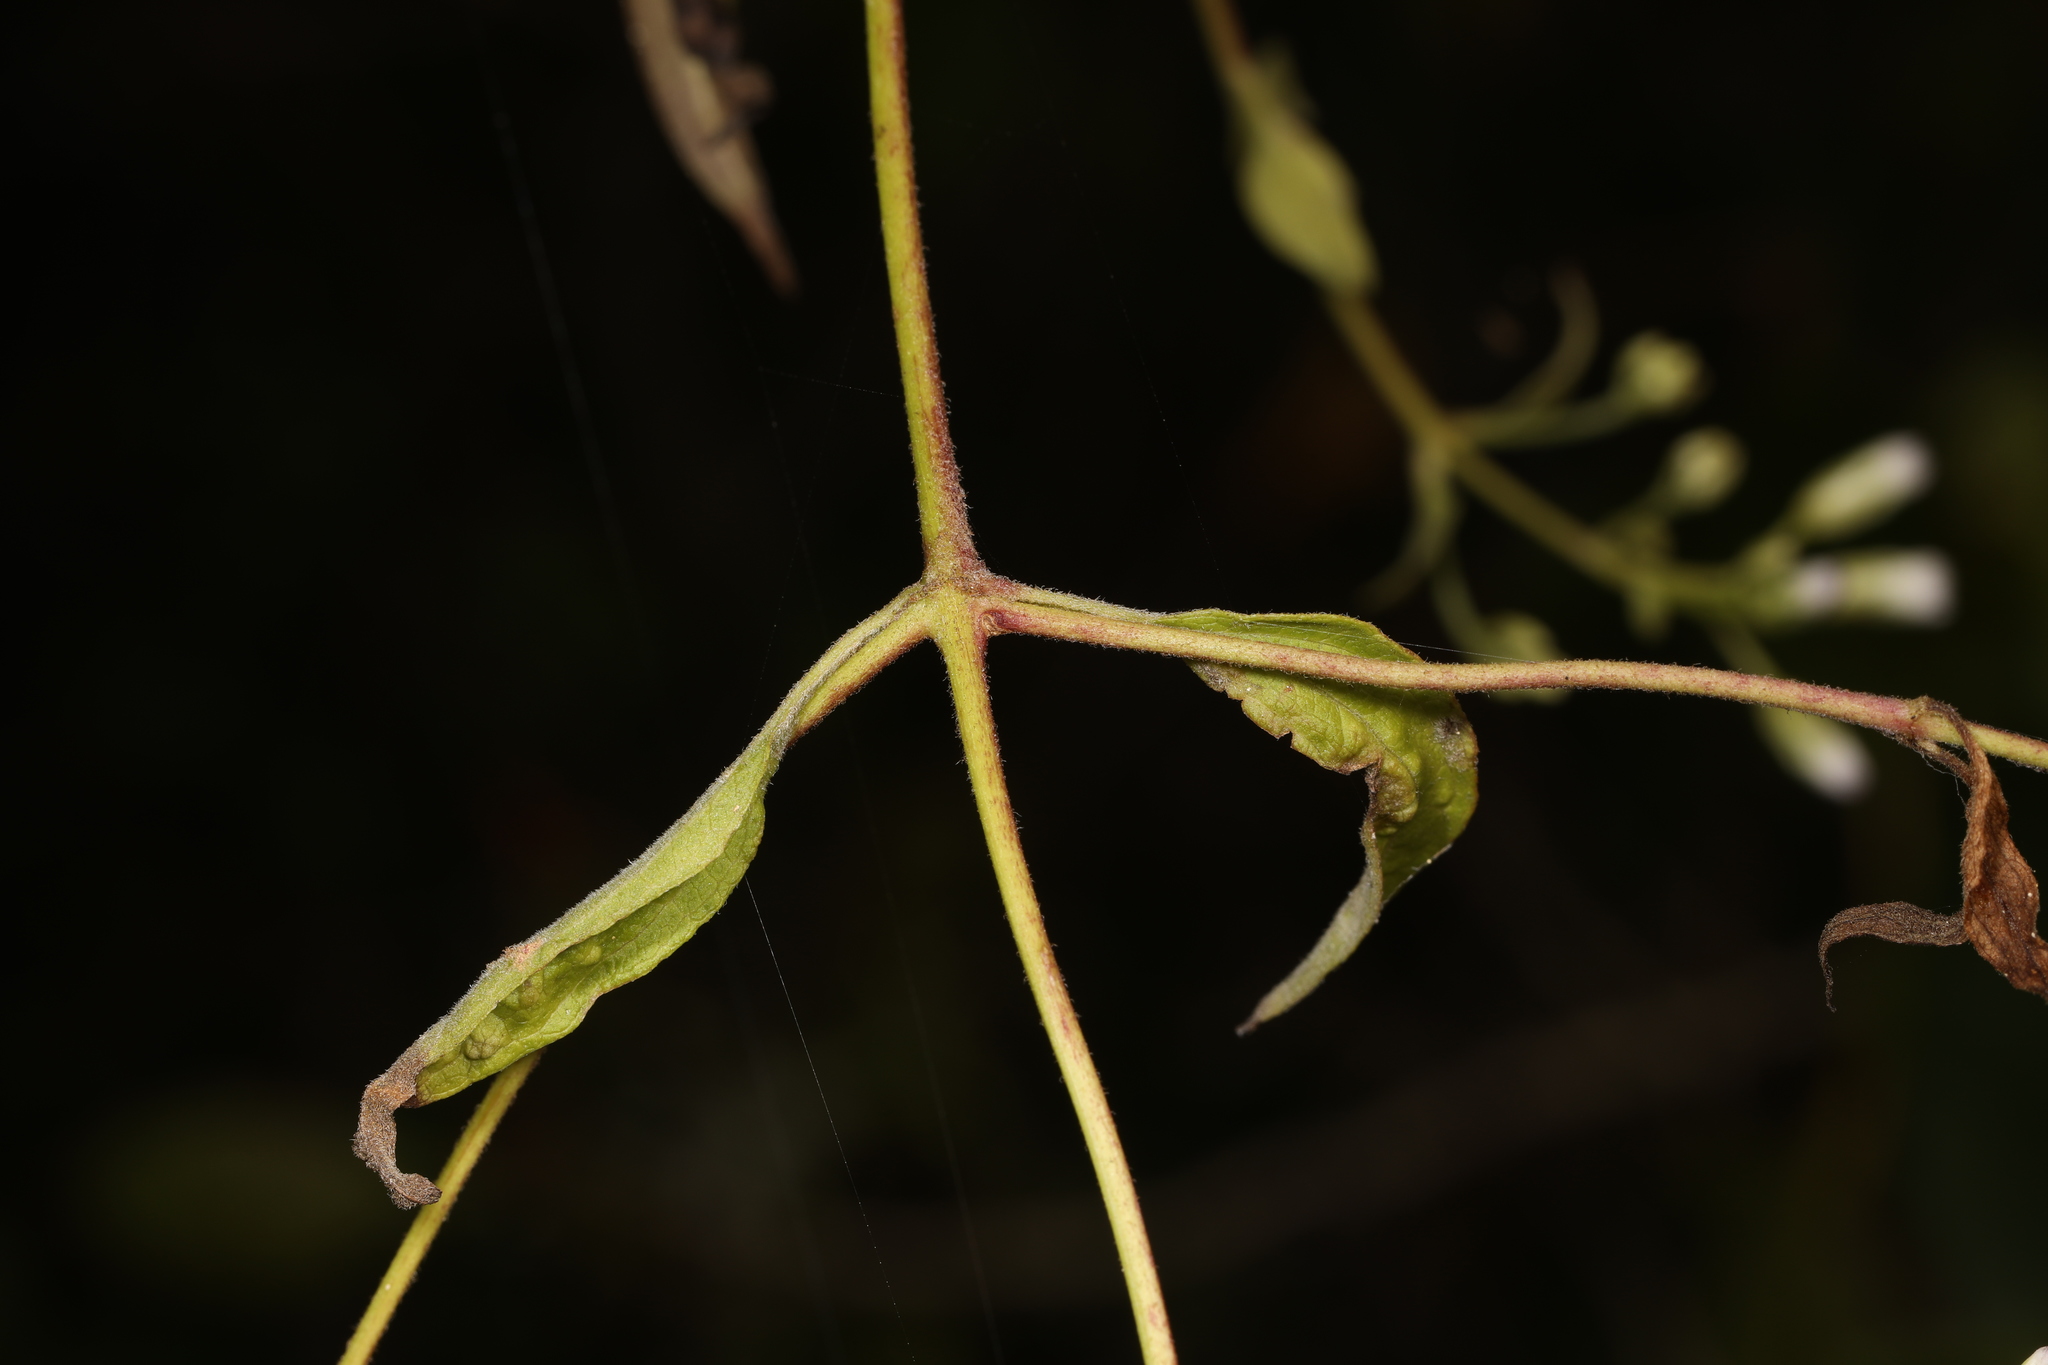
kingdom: Plantae
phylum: Tracheophyta
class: Magnoliopsida
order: Asterales
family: Asteraceae
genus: Chromolaena
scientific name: Chromolaena odorata
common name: Siamweed
